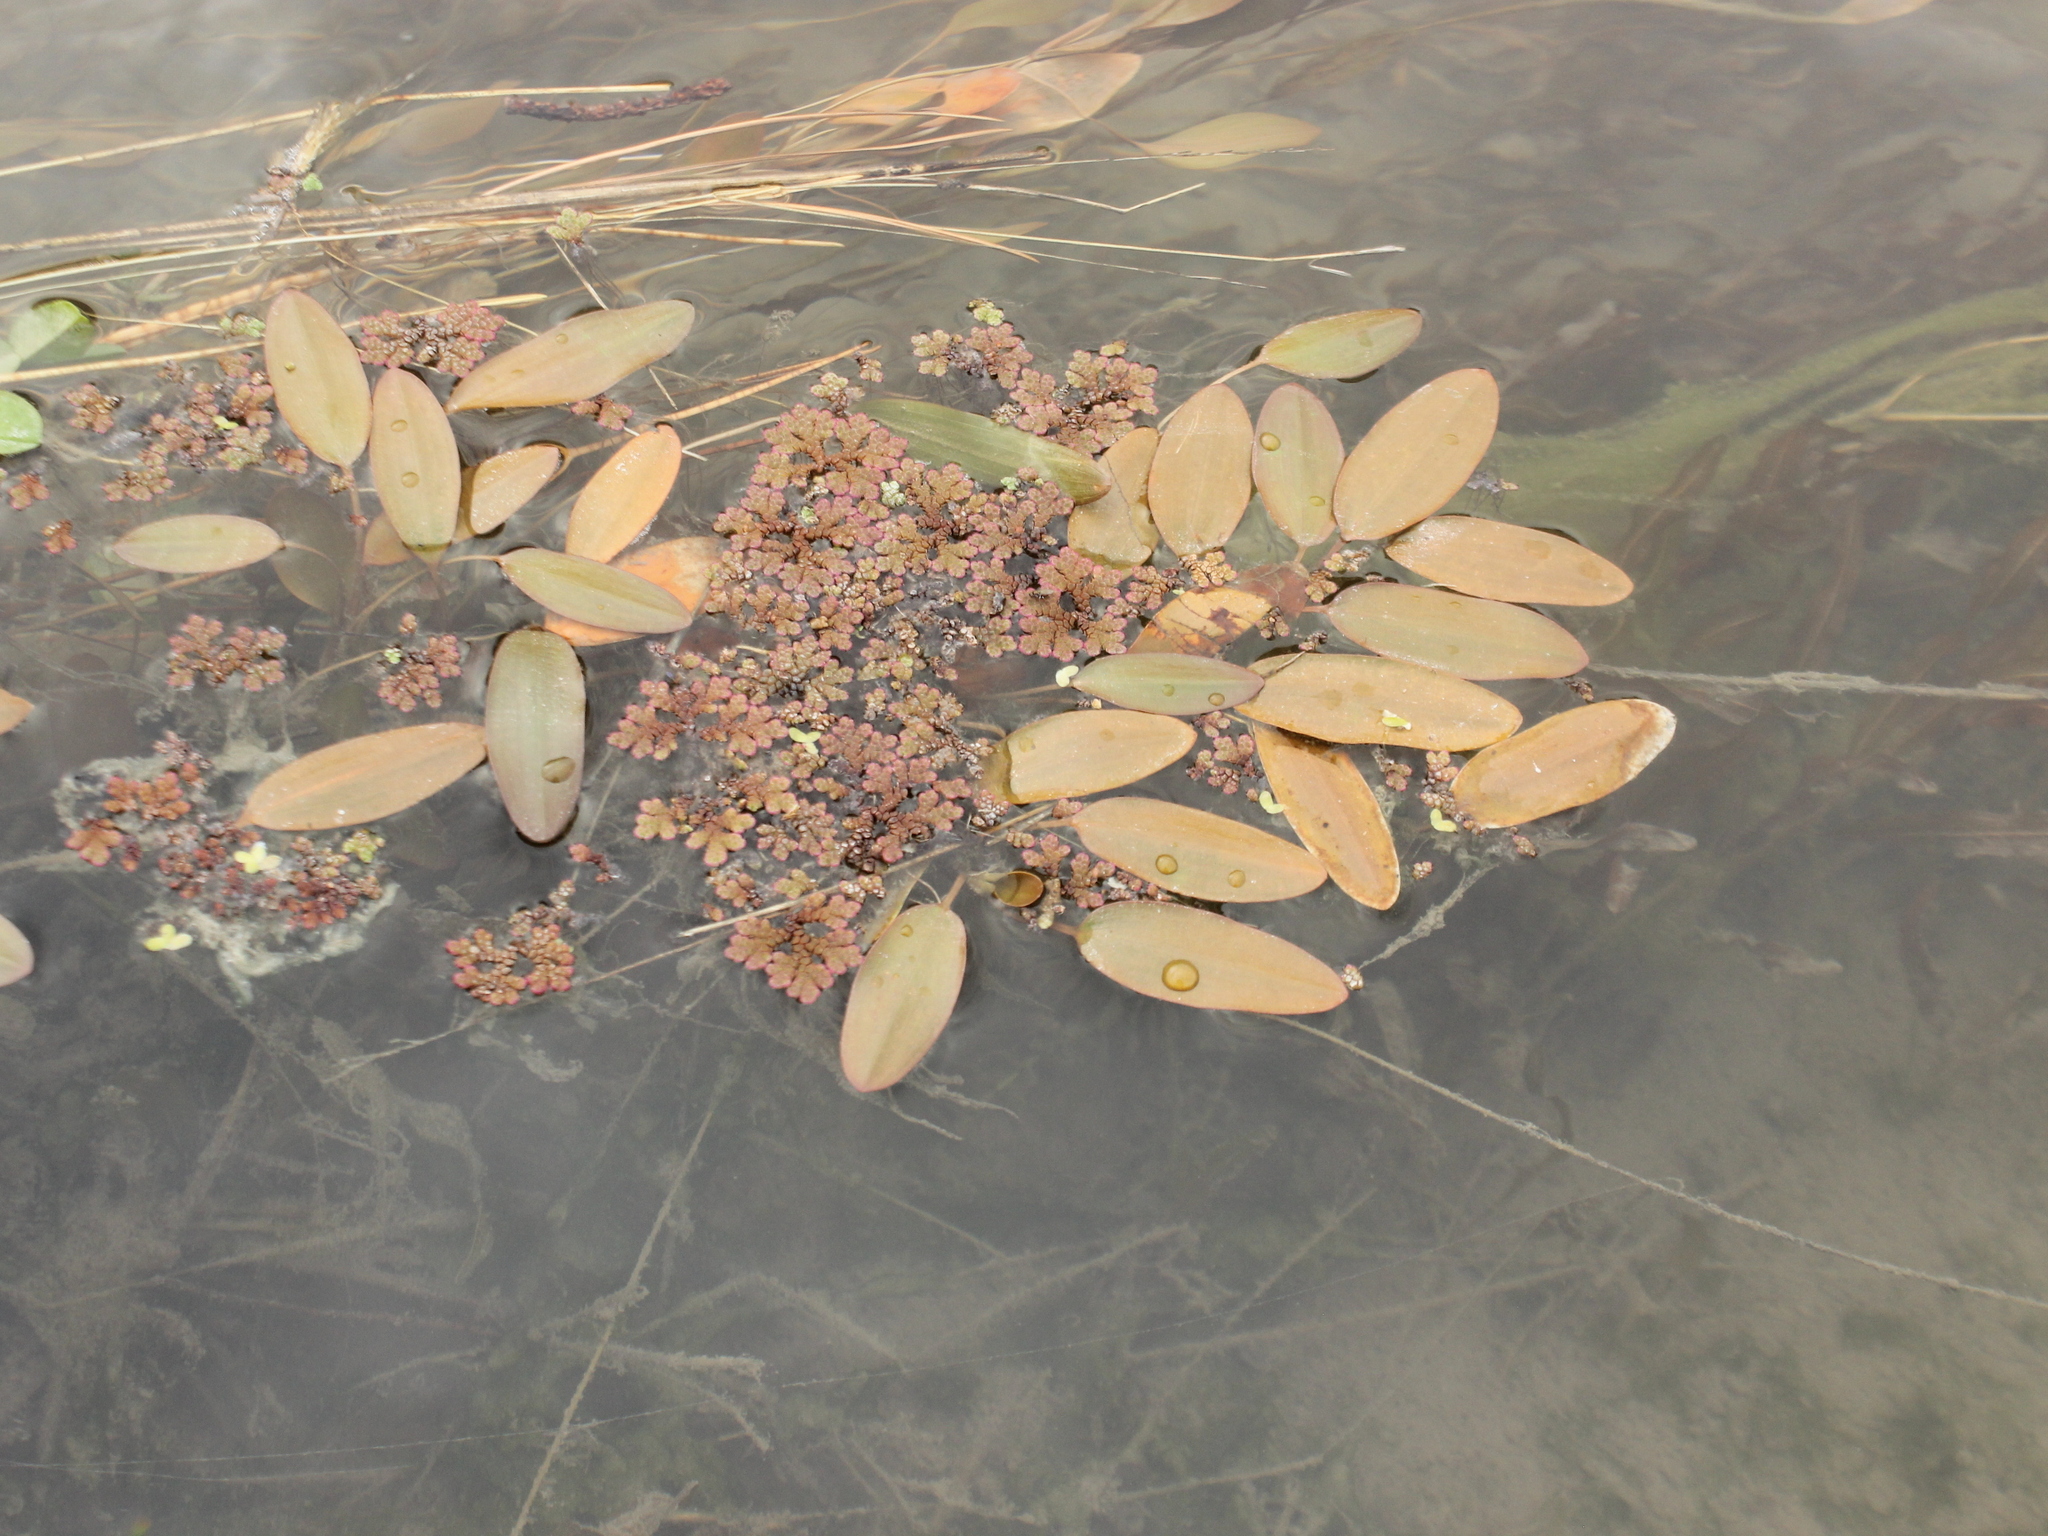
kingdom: Plantae
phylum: Tracheophyta
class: Liliopsida
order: Alismatales
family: Potamogetonaceae
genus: Potamogeton
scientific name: Potamogeton cheesemanii
